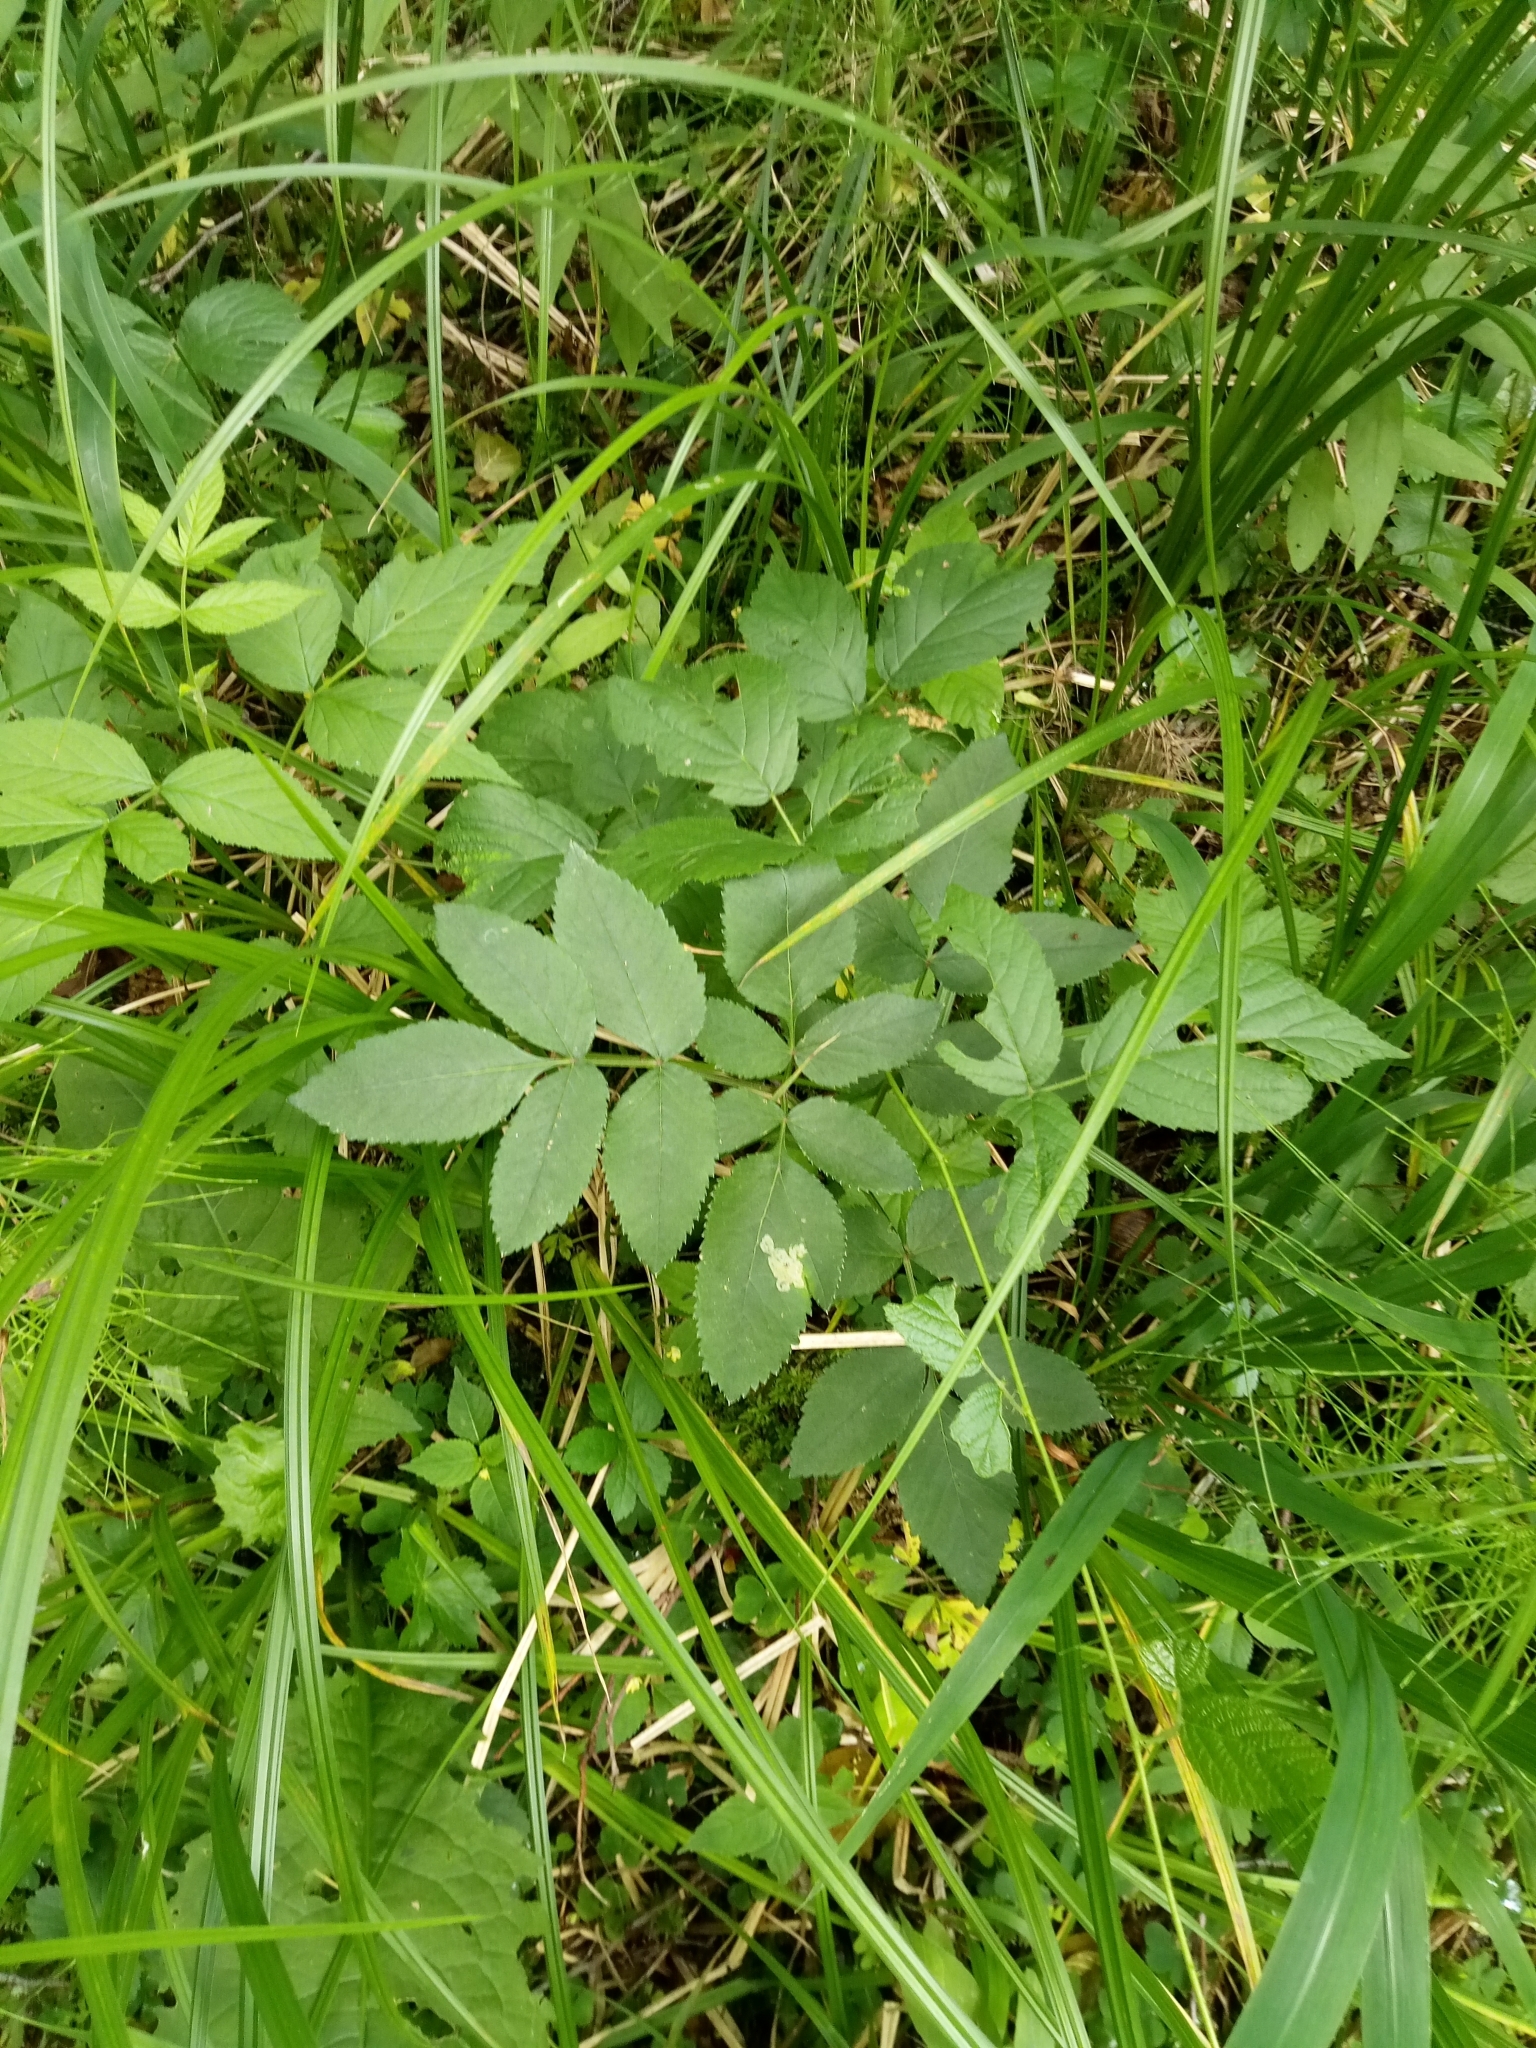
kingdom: Plantae
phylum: Tracheophyta
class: Magnoliopsida
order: Apiales
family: Apiaceae
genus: Angelica
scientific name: Angelica sylvestris
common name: Wild angelica
